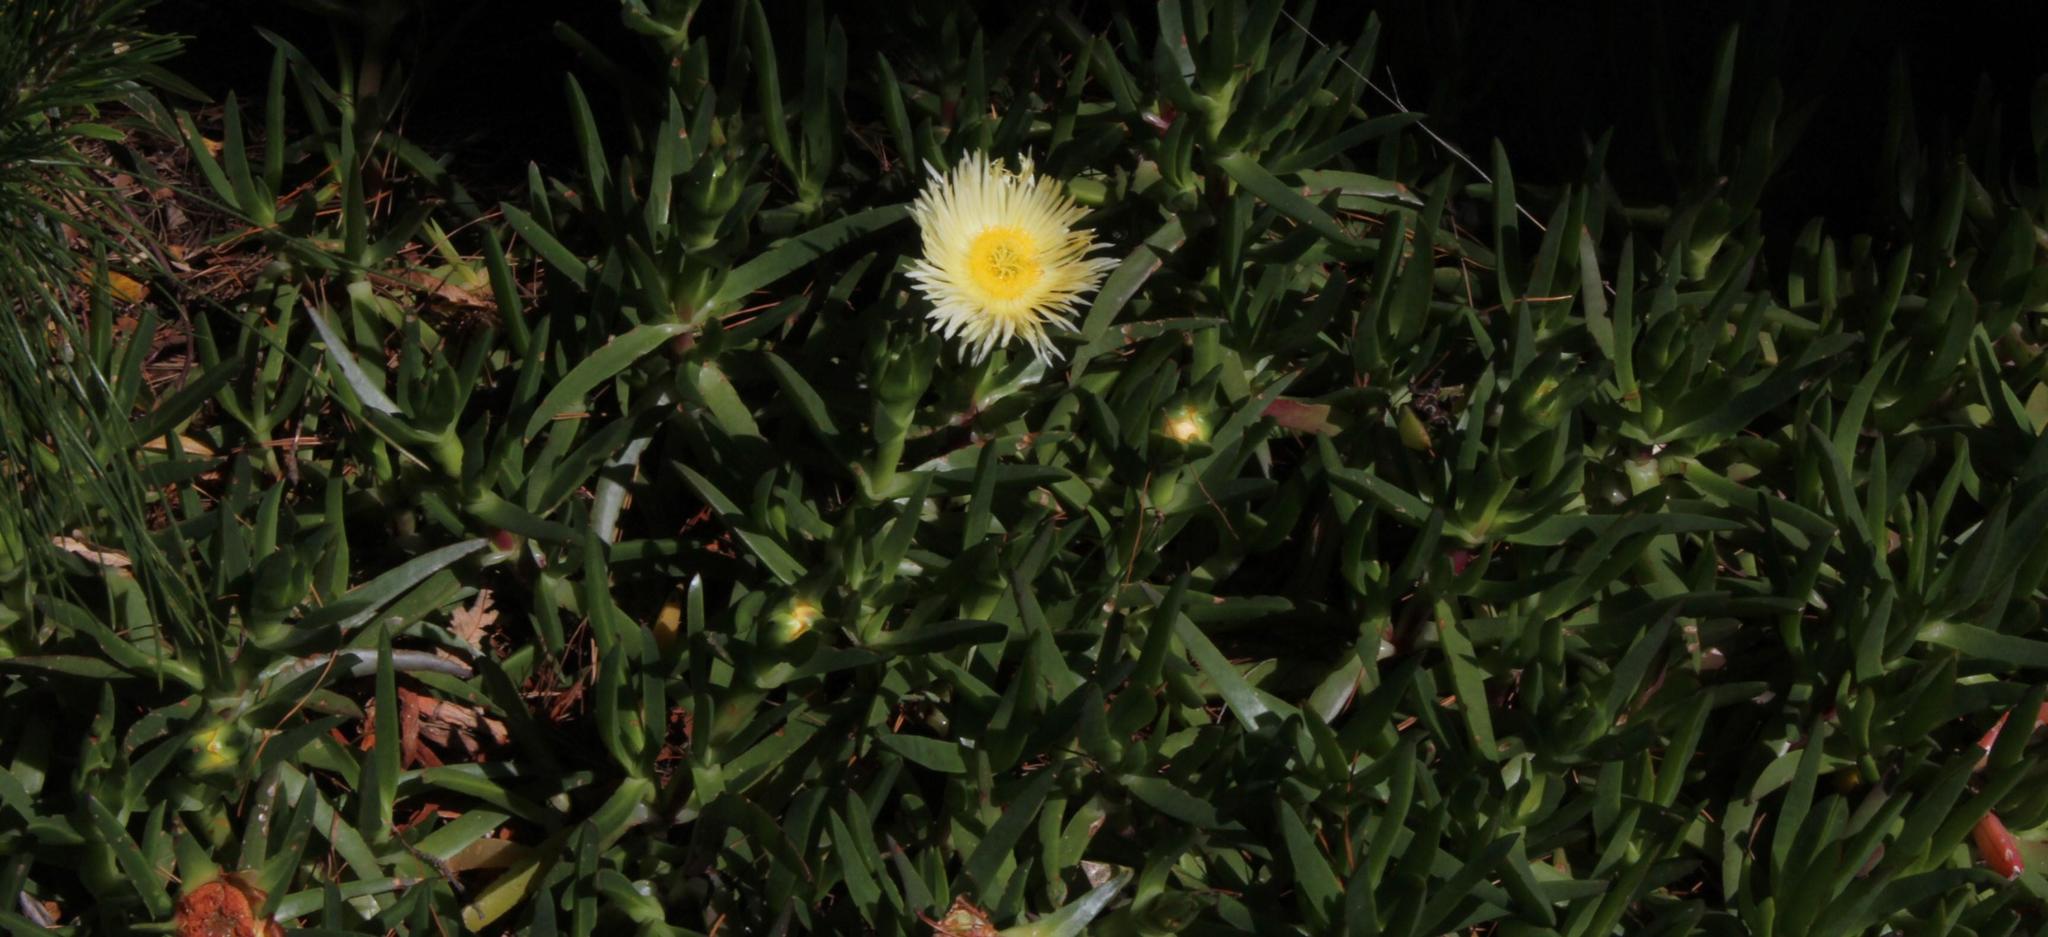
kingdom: Plantae
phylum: Tracheophyta
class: Magnoliopsida
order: Caryophyllales
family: Aizoaceae
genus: Carpobrotus
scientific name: Carpobrotus edulis
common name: Hottentot-fig
